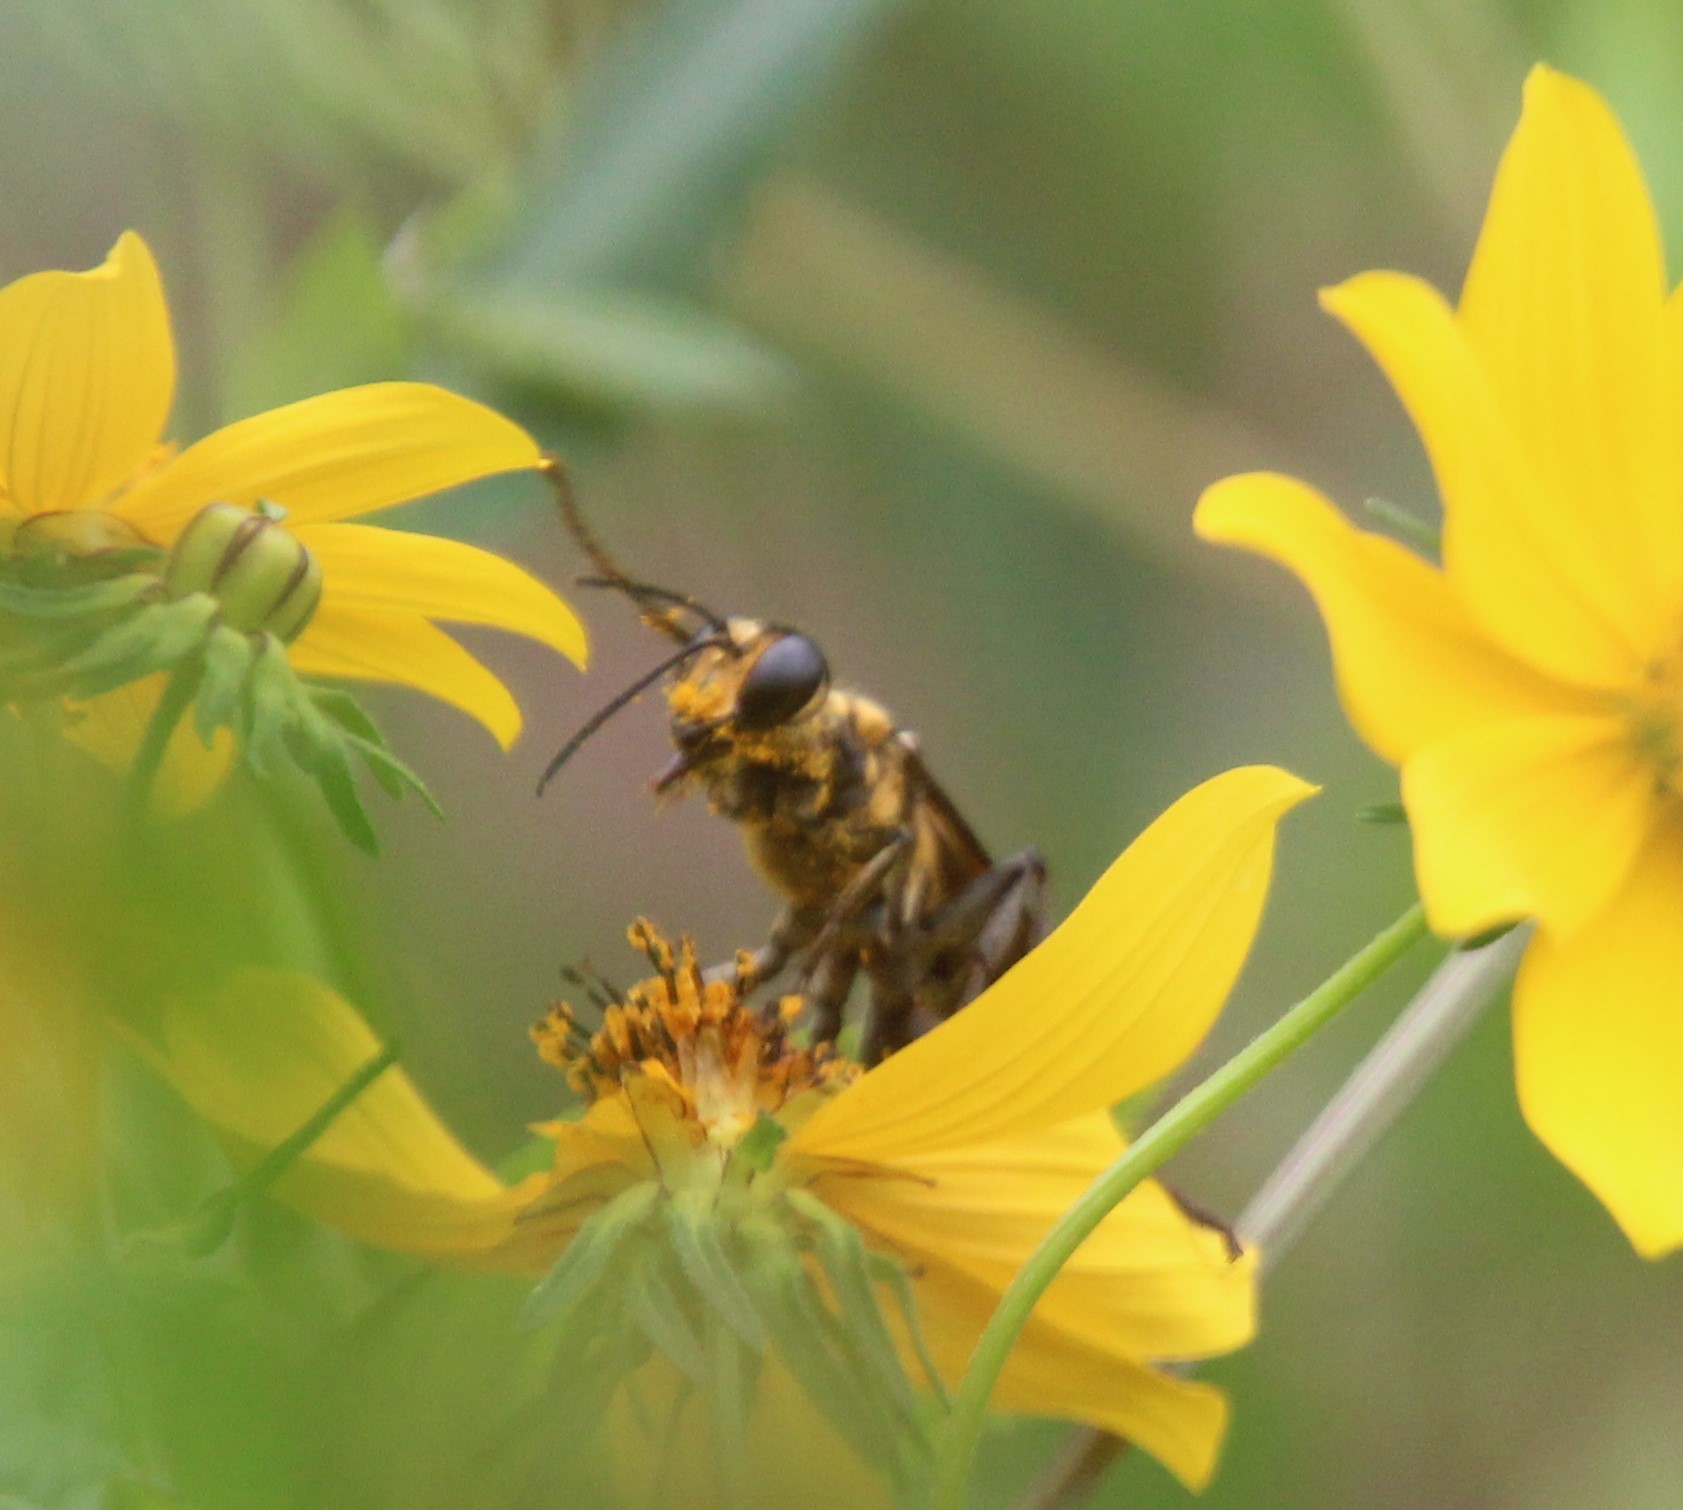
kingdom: Animalia
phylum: Arthropoda
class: Insecta
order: Hymenoptera
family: Sphecidae
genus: Sphex
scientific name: Sphex habenus
